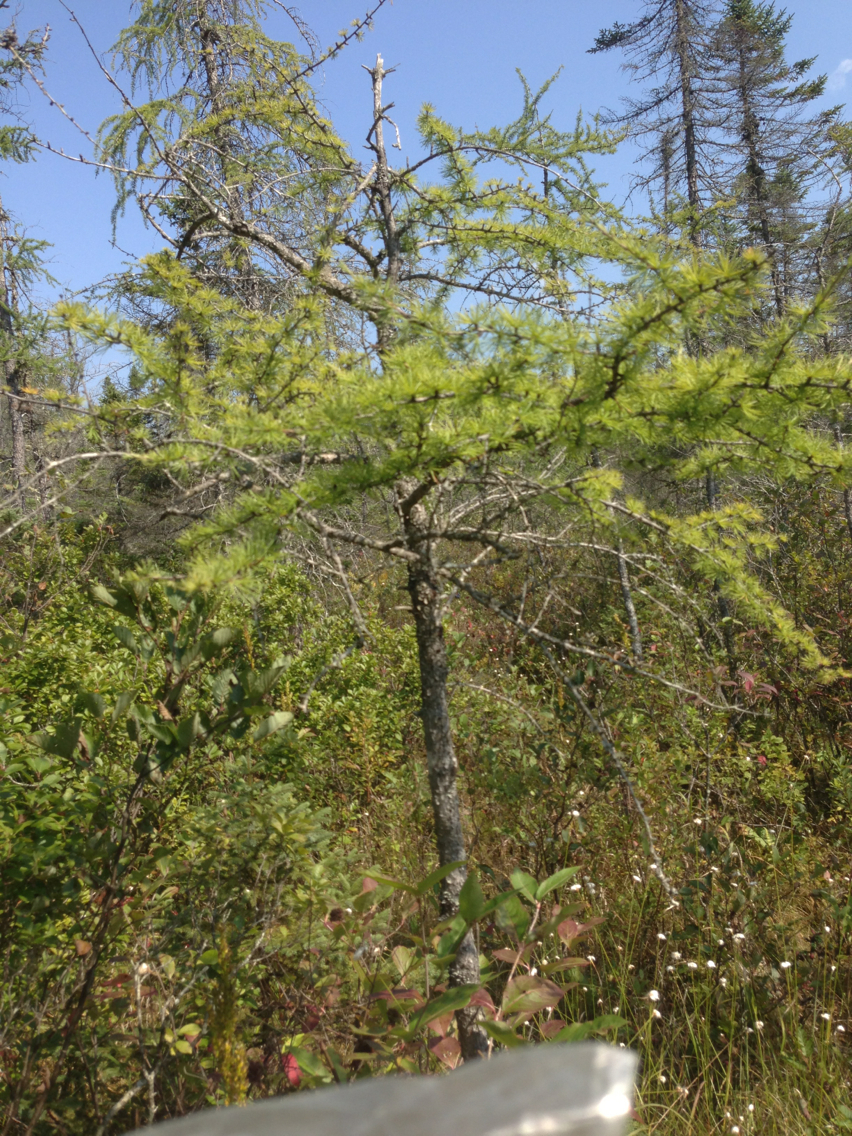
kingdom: Plantae
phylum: Tracheophyta
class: Pinopsida
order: Pinales
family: Pinaceae
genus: Larix
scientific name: Larix laricina
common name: American larch
